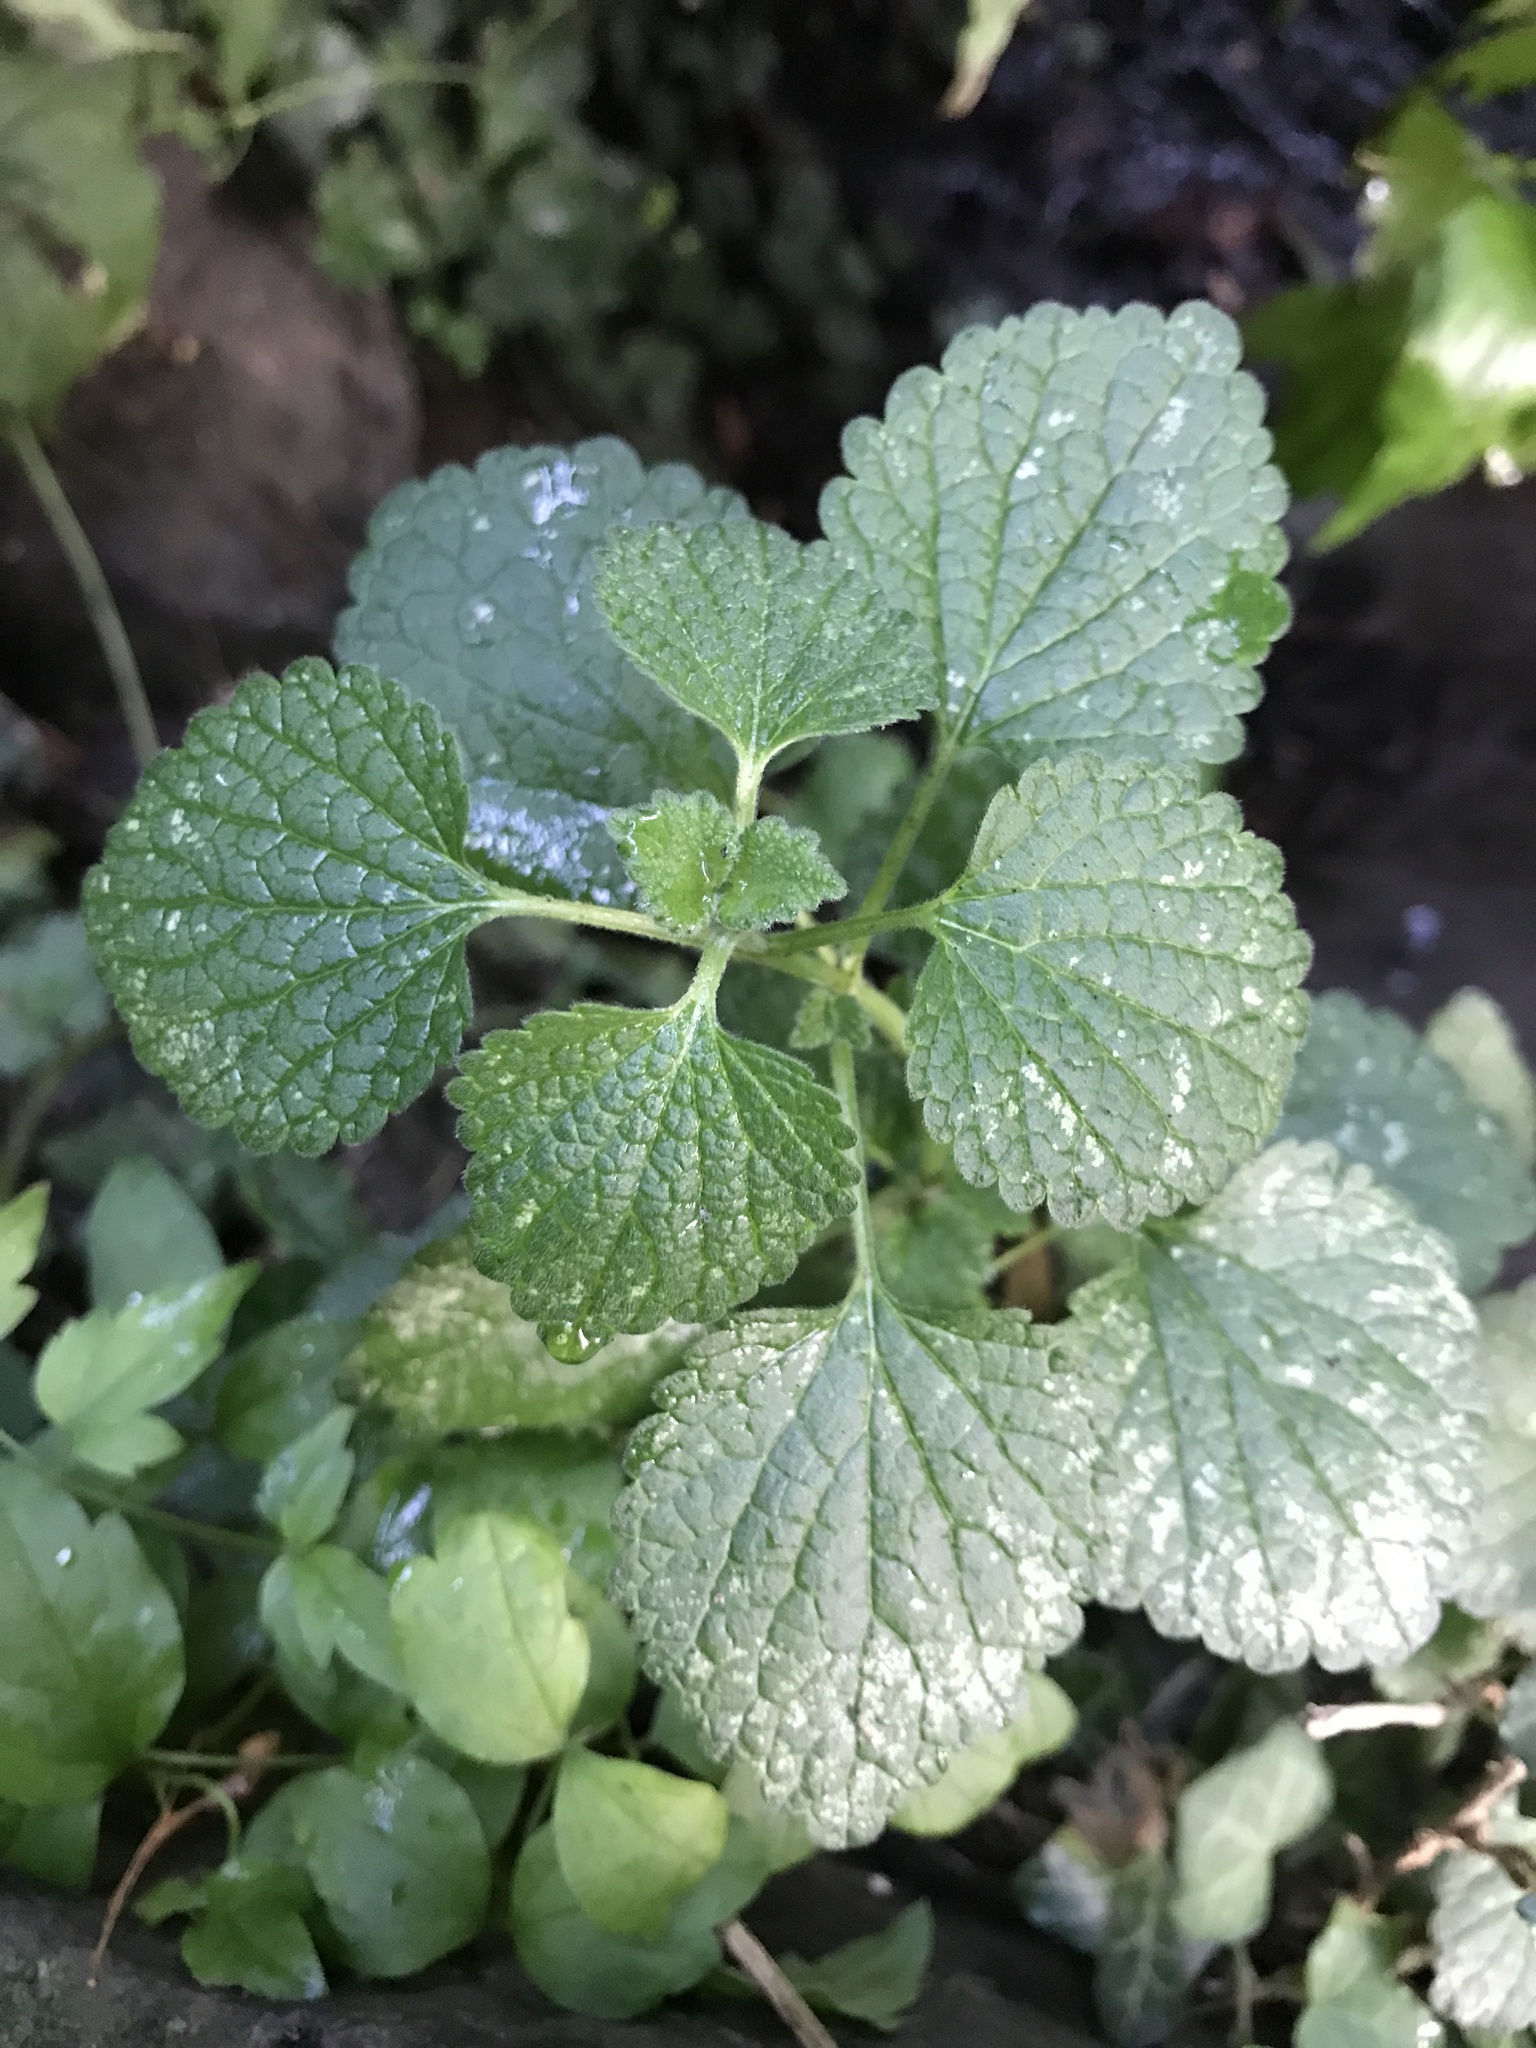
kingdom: Plantae
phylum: Tracheophyta
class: Magnoliopsida
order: Lamiales
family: Lamiaceae
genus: Ballota
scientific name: Ballota nigra
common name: Black horehound
